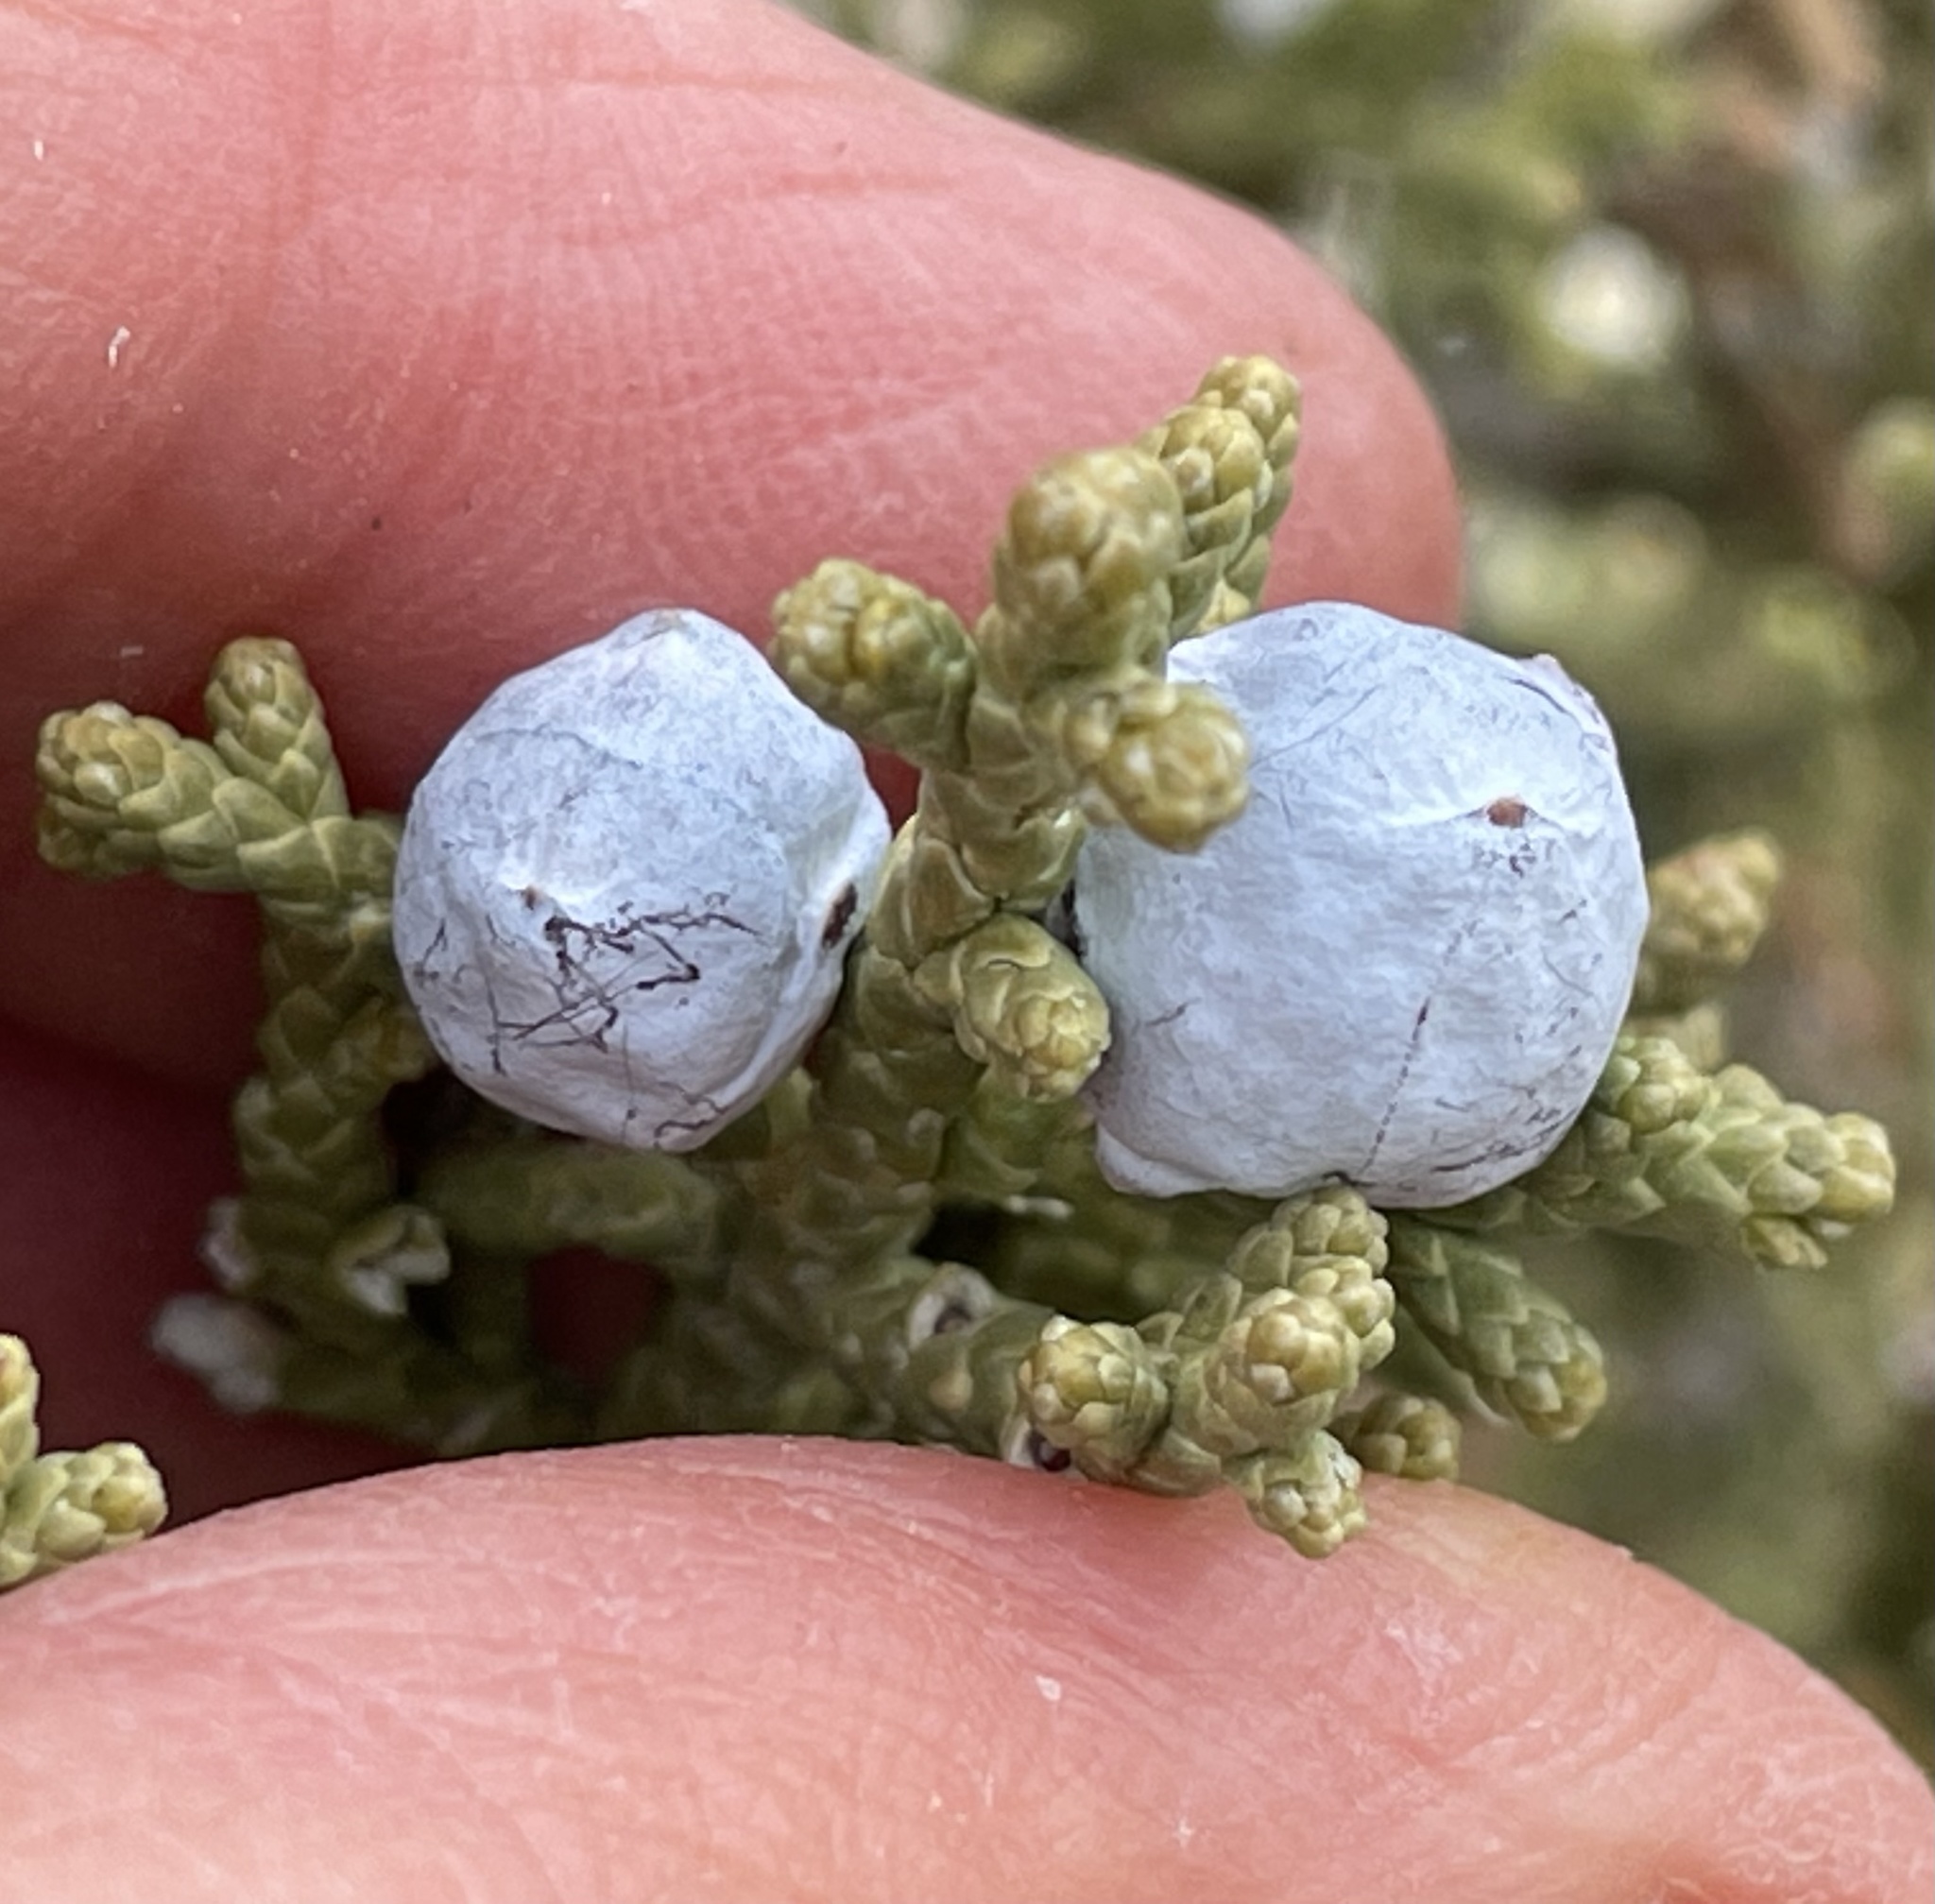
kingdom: Plantae
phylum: Tracheophyta
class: Pinopsida
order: Pinales
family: Cupressaceae
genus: Juniperus
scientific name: Juniperus osteosperma
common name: Utah juniper
